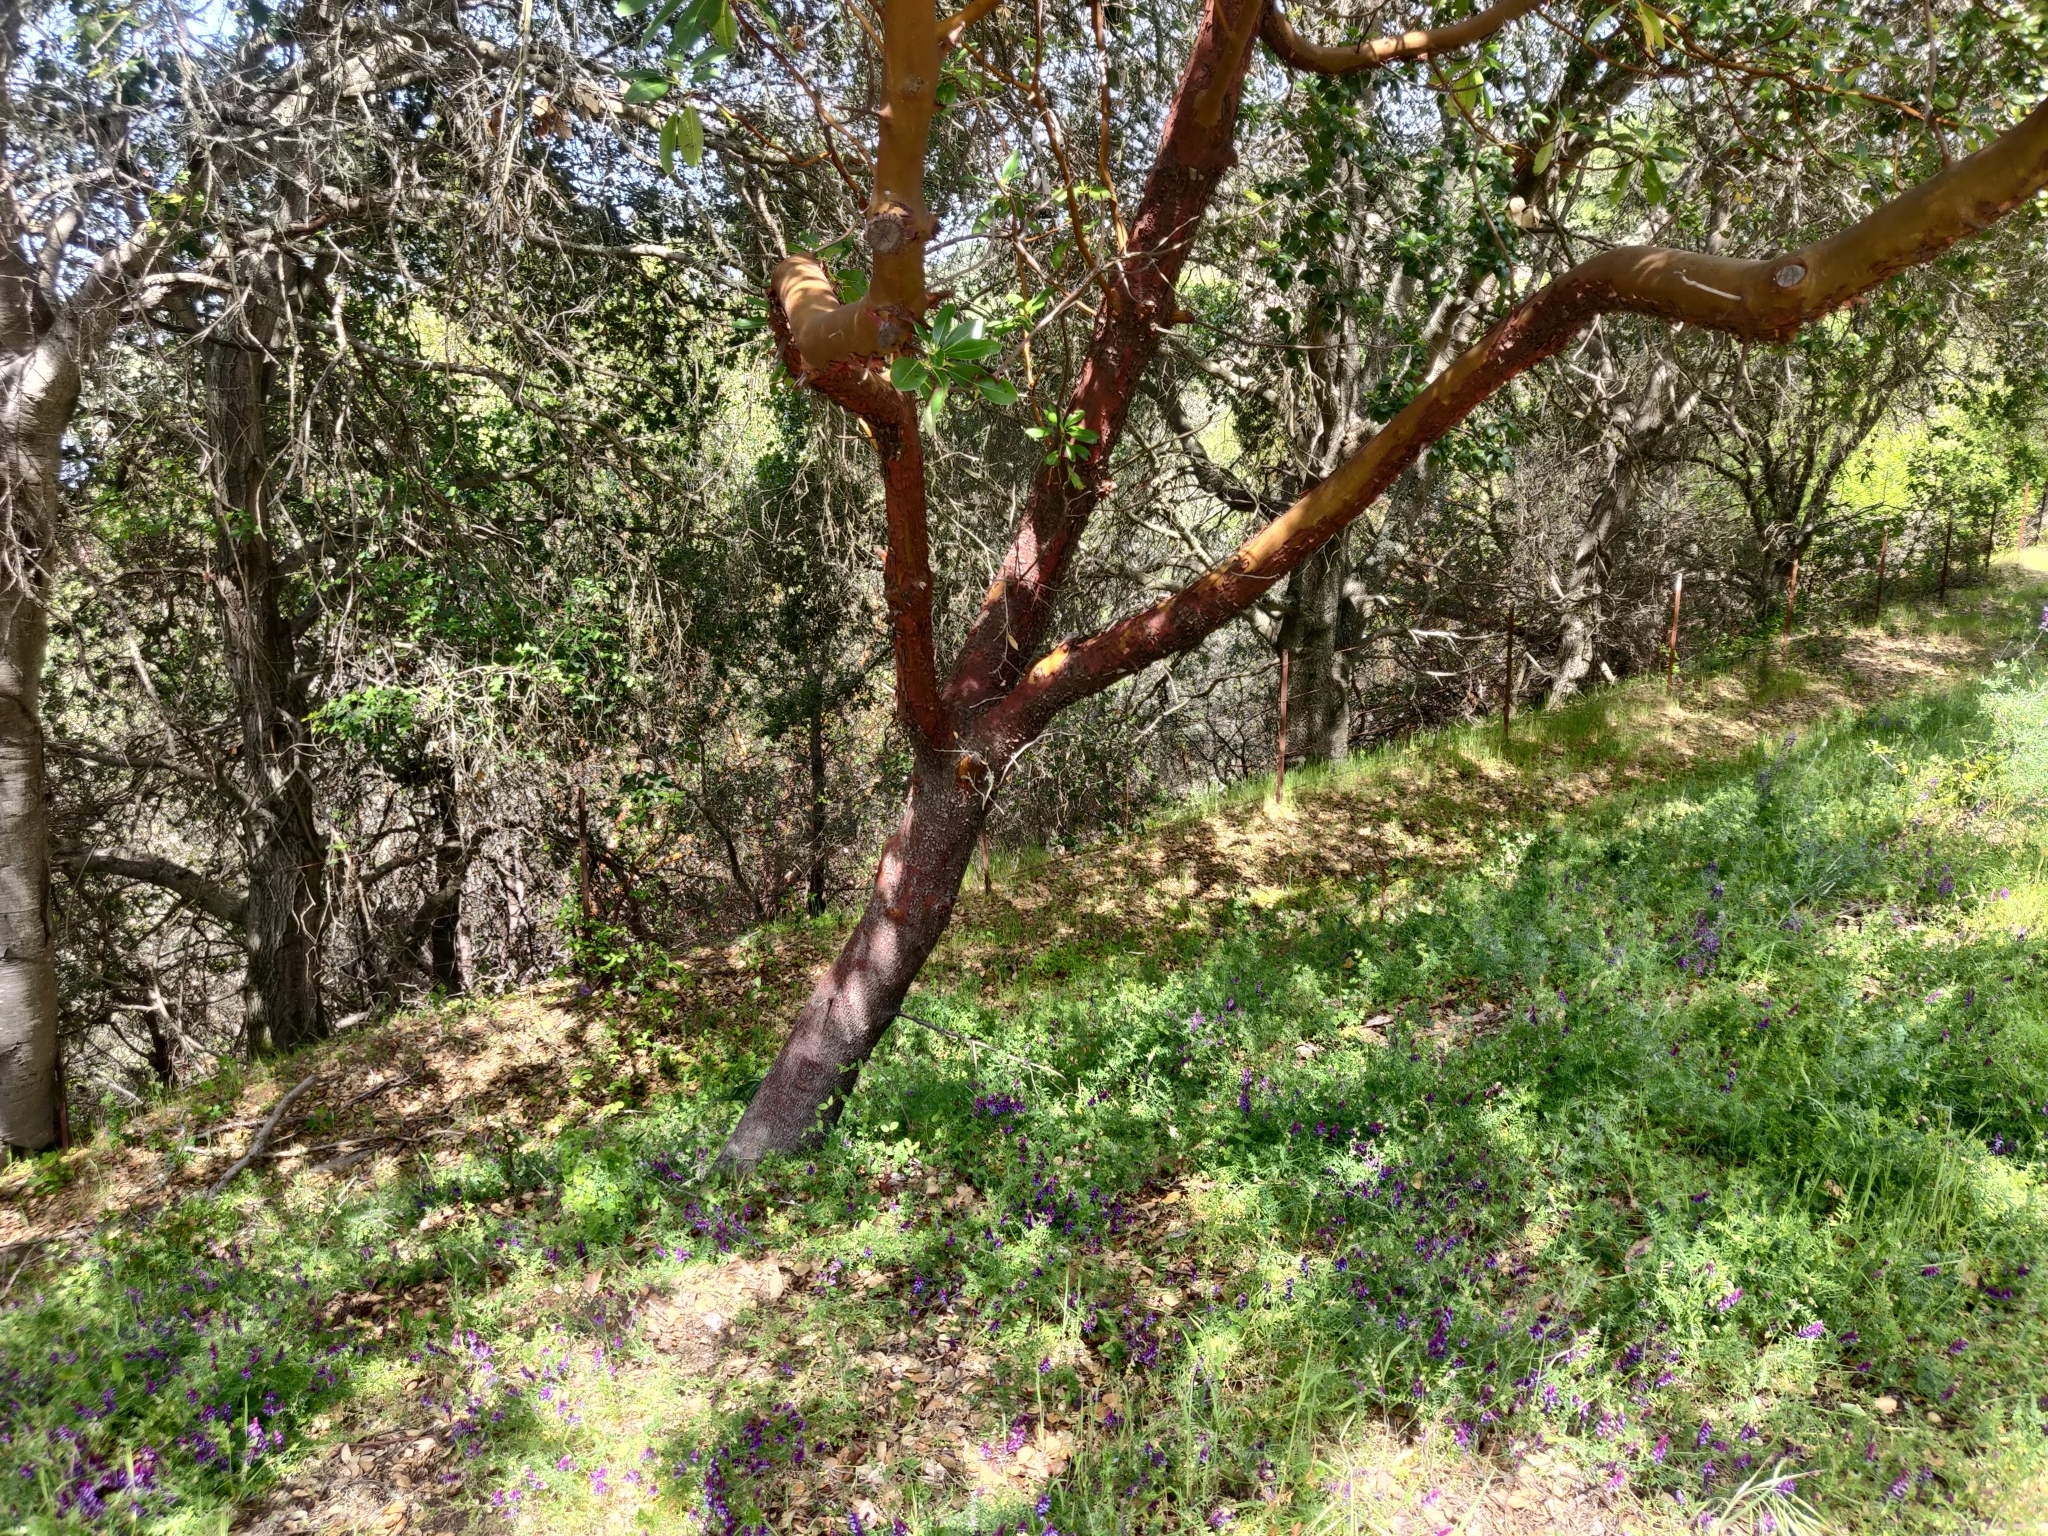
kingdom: Plantae
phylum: Tracheophyta
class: Magnoliopsida
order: Ericales
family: Ericaceae
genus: Arbutus
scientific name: Arbutus menziesii
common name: Pacific madrone
